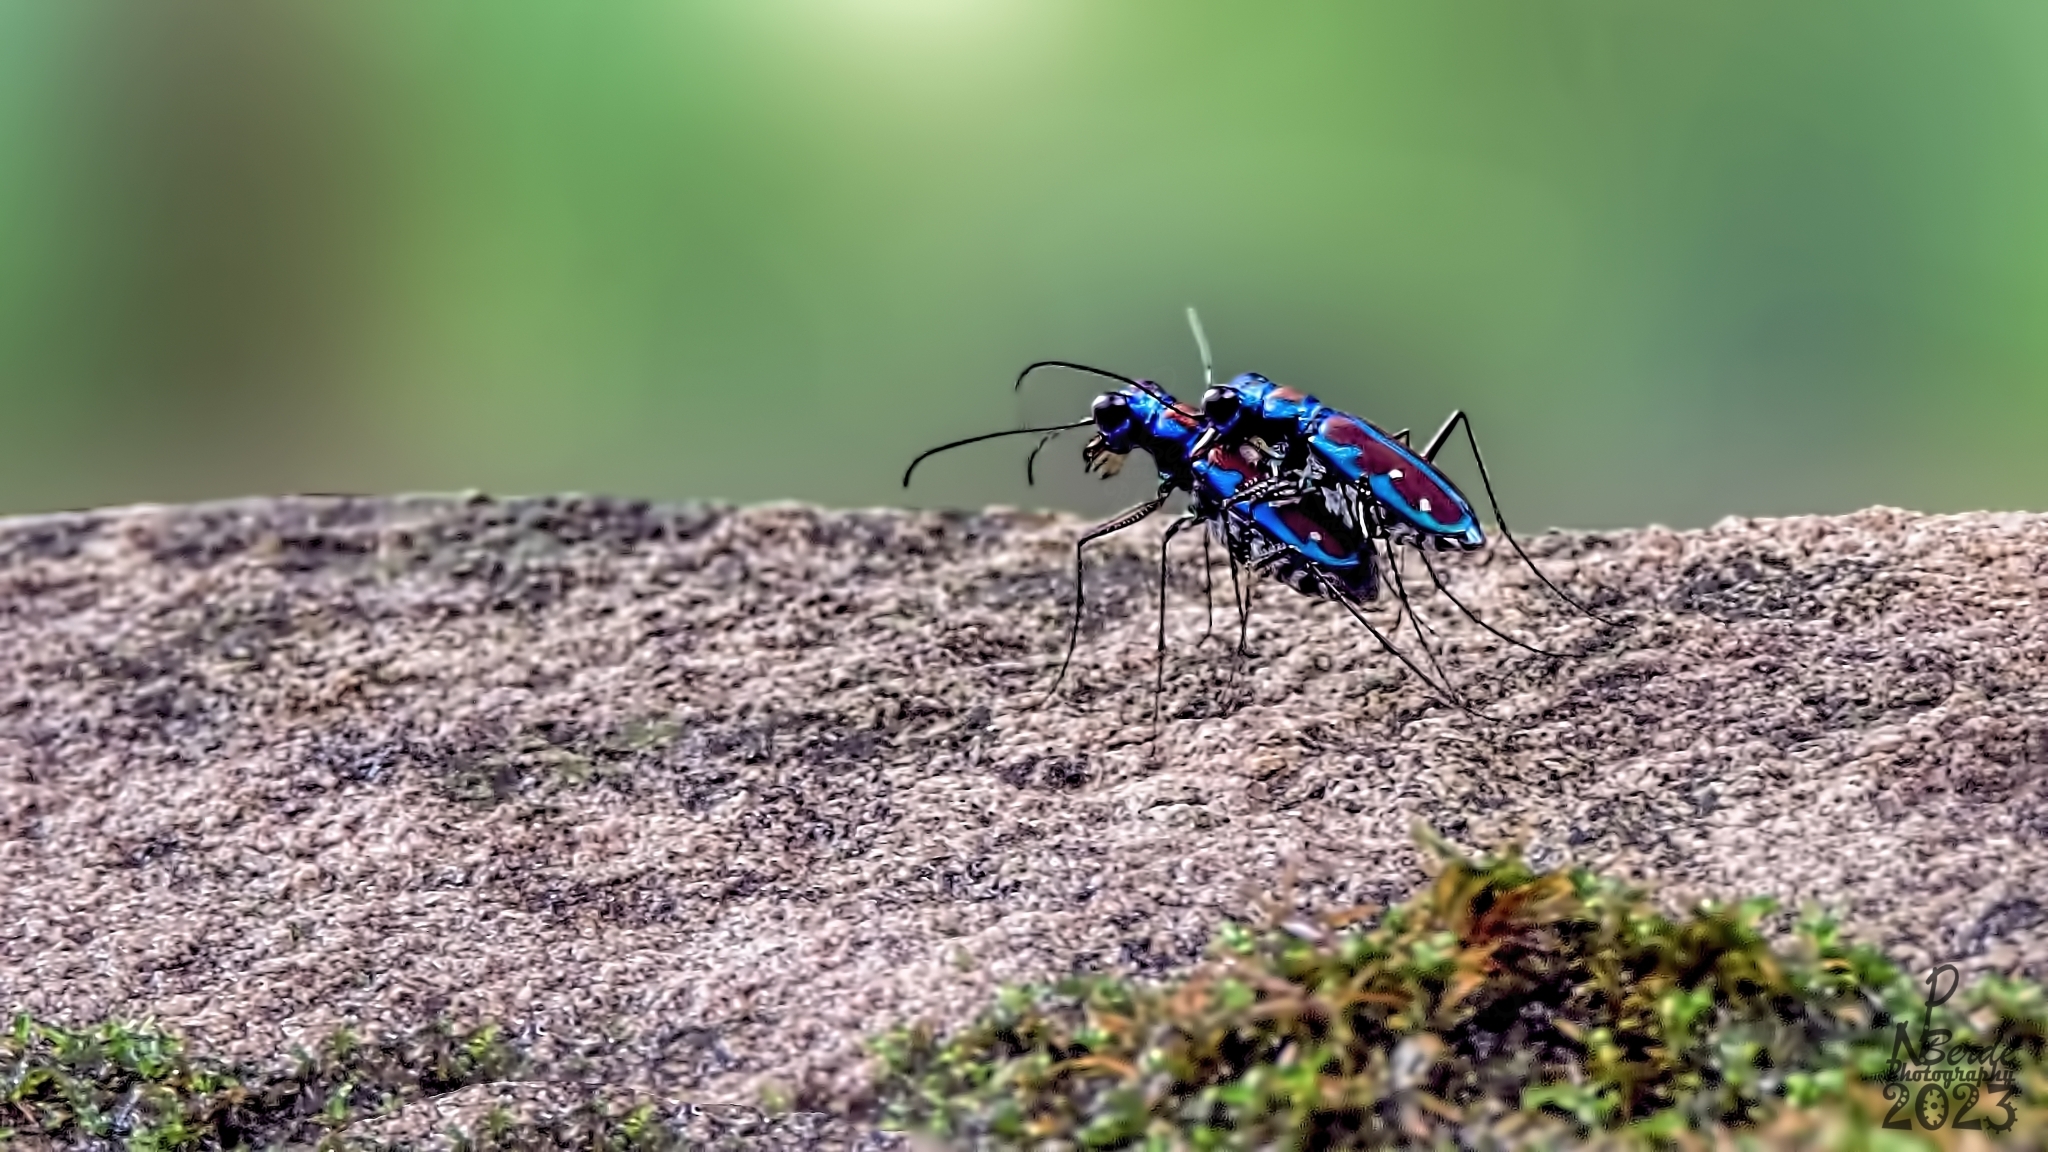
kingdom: Animalia
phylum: Arthropoda
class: Insecta
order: Coleoptera
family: Carabidae
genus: Jansenia
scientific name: Jansenia azureocincta
